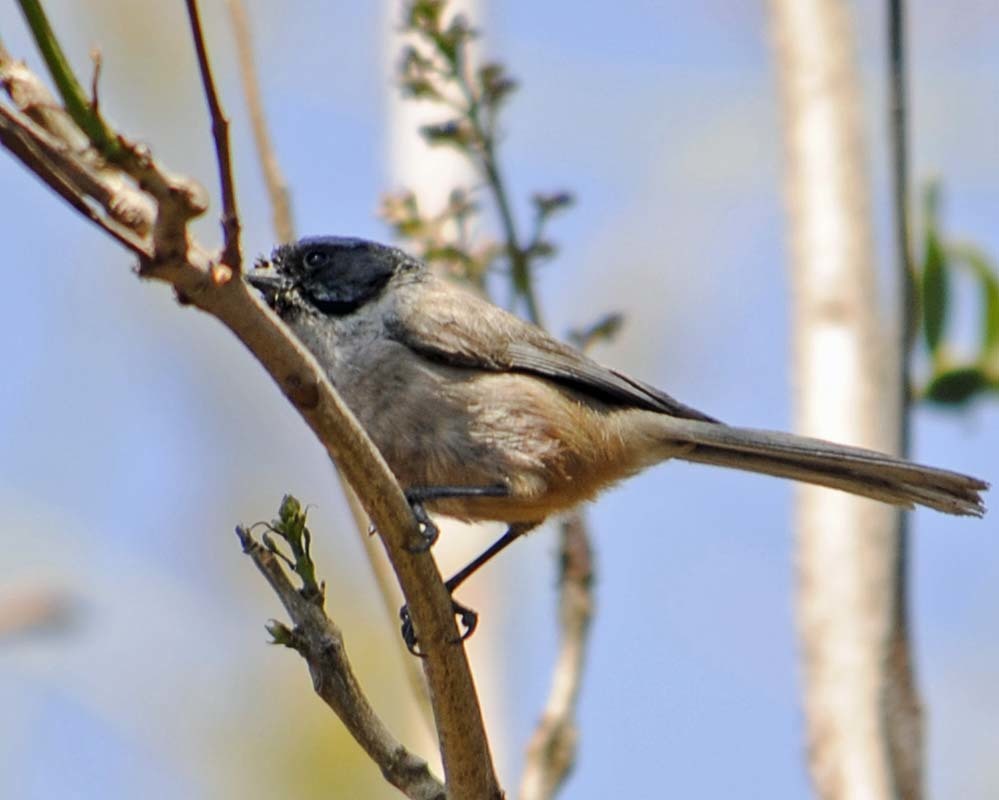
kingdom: Animalia
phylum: Chordata
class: Aves
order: Passeriformes
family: Aegithalidae
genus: Psaltriparus
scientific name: Psaltriparus minimus
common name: American bushtit
